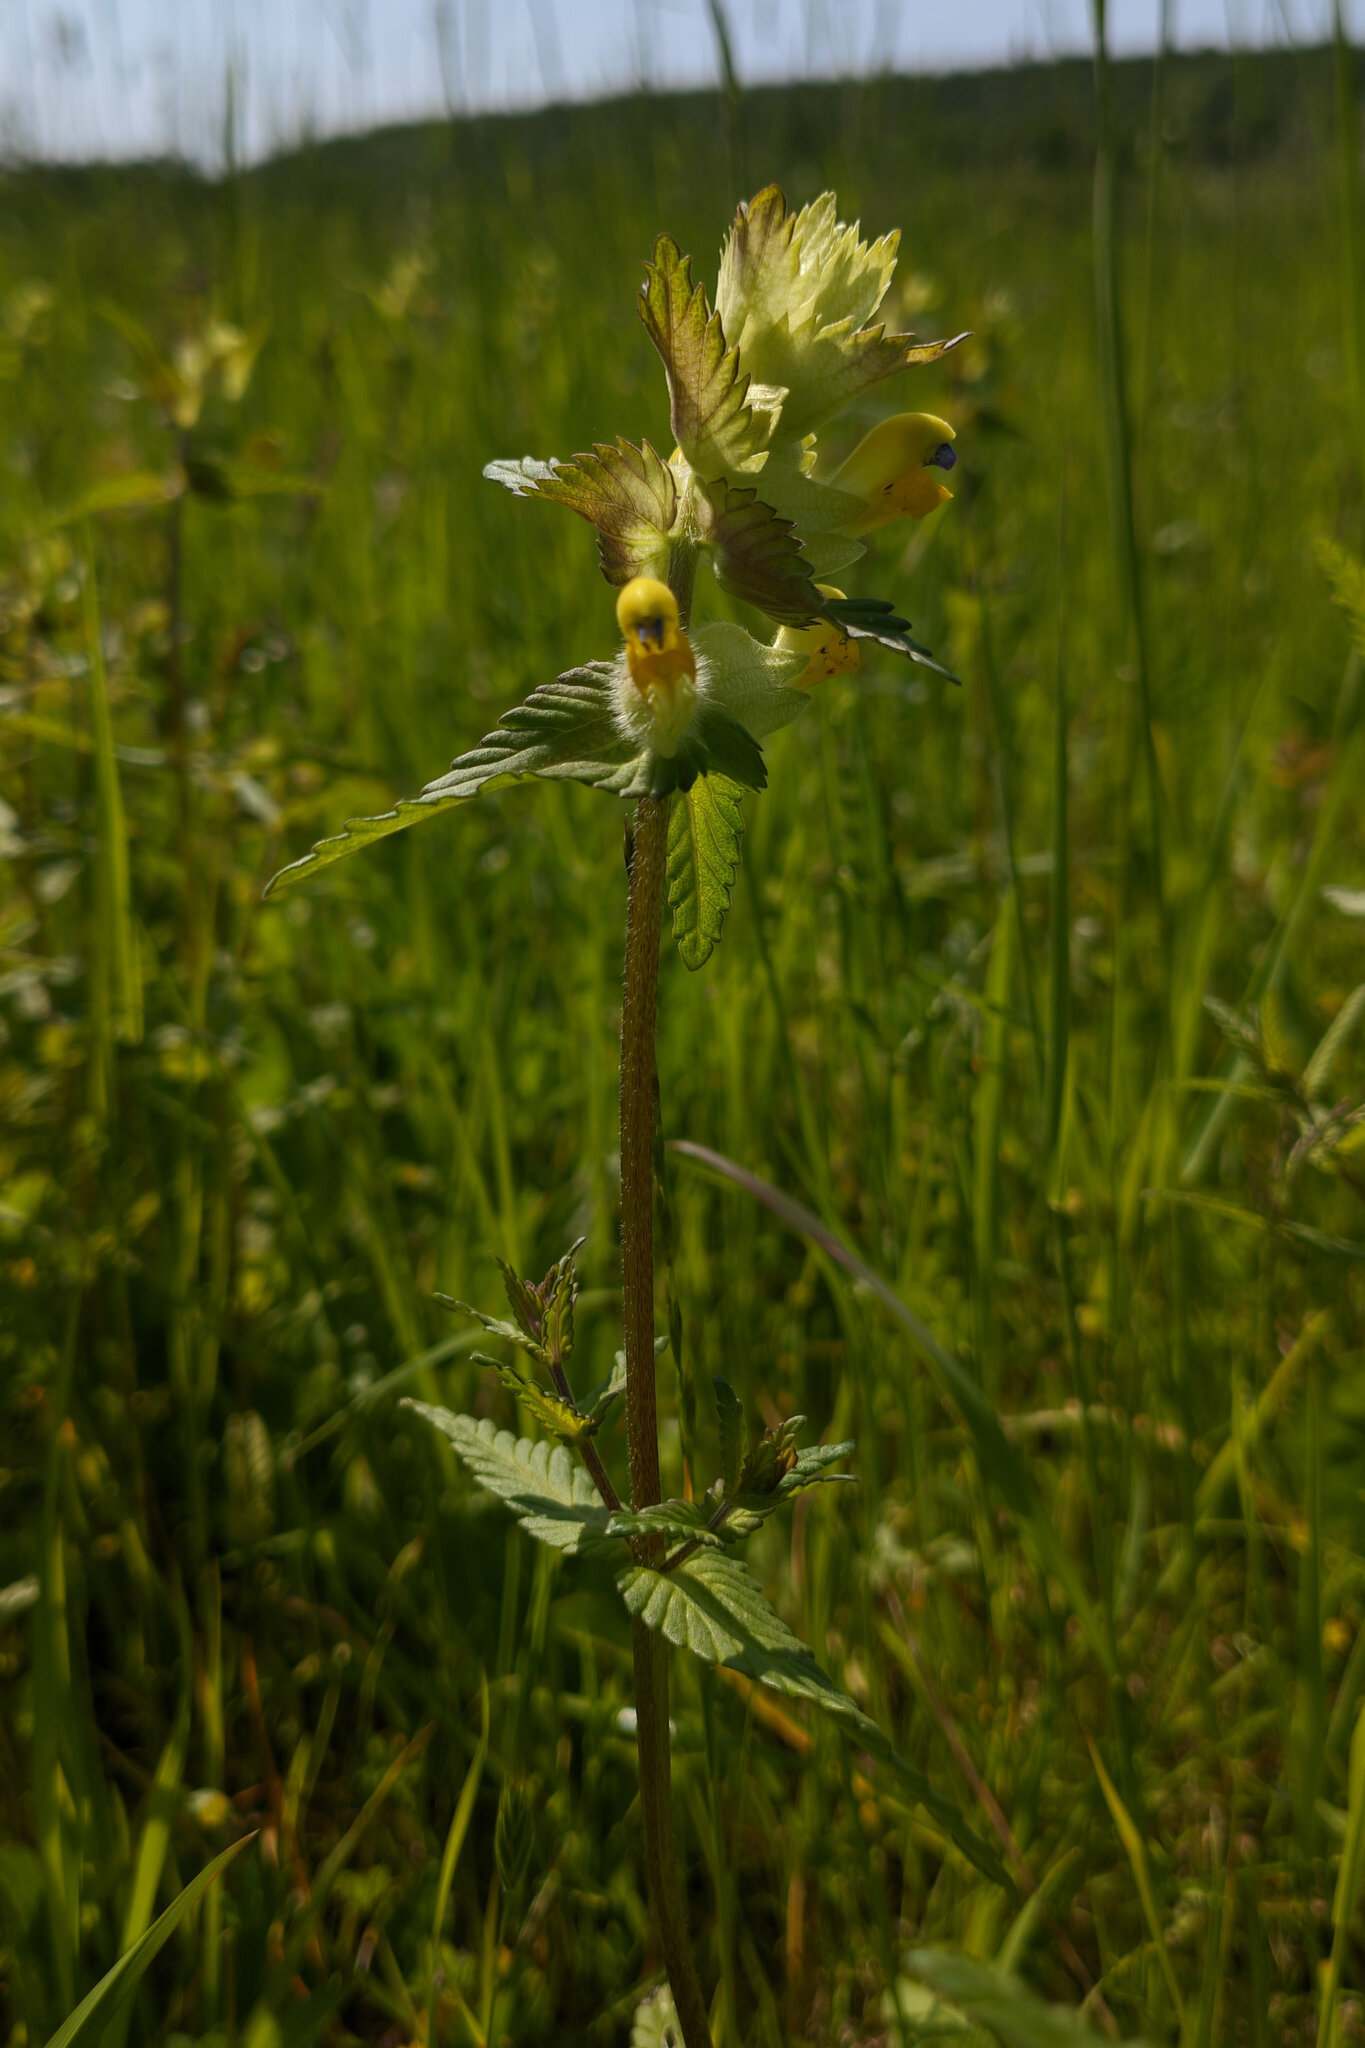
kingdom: Plantae
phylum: Tracheophyta
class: Magnoliopsida
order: Lamiales
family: Orobanchaceae
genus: Rhinanthus
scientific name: Rhinanthus alectorolophus
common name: Greater yellow-rattle
